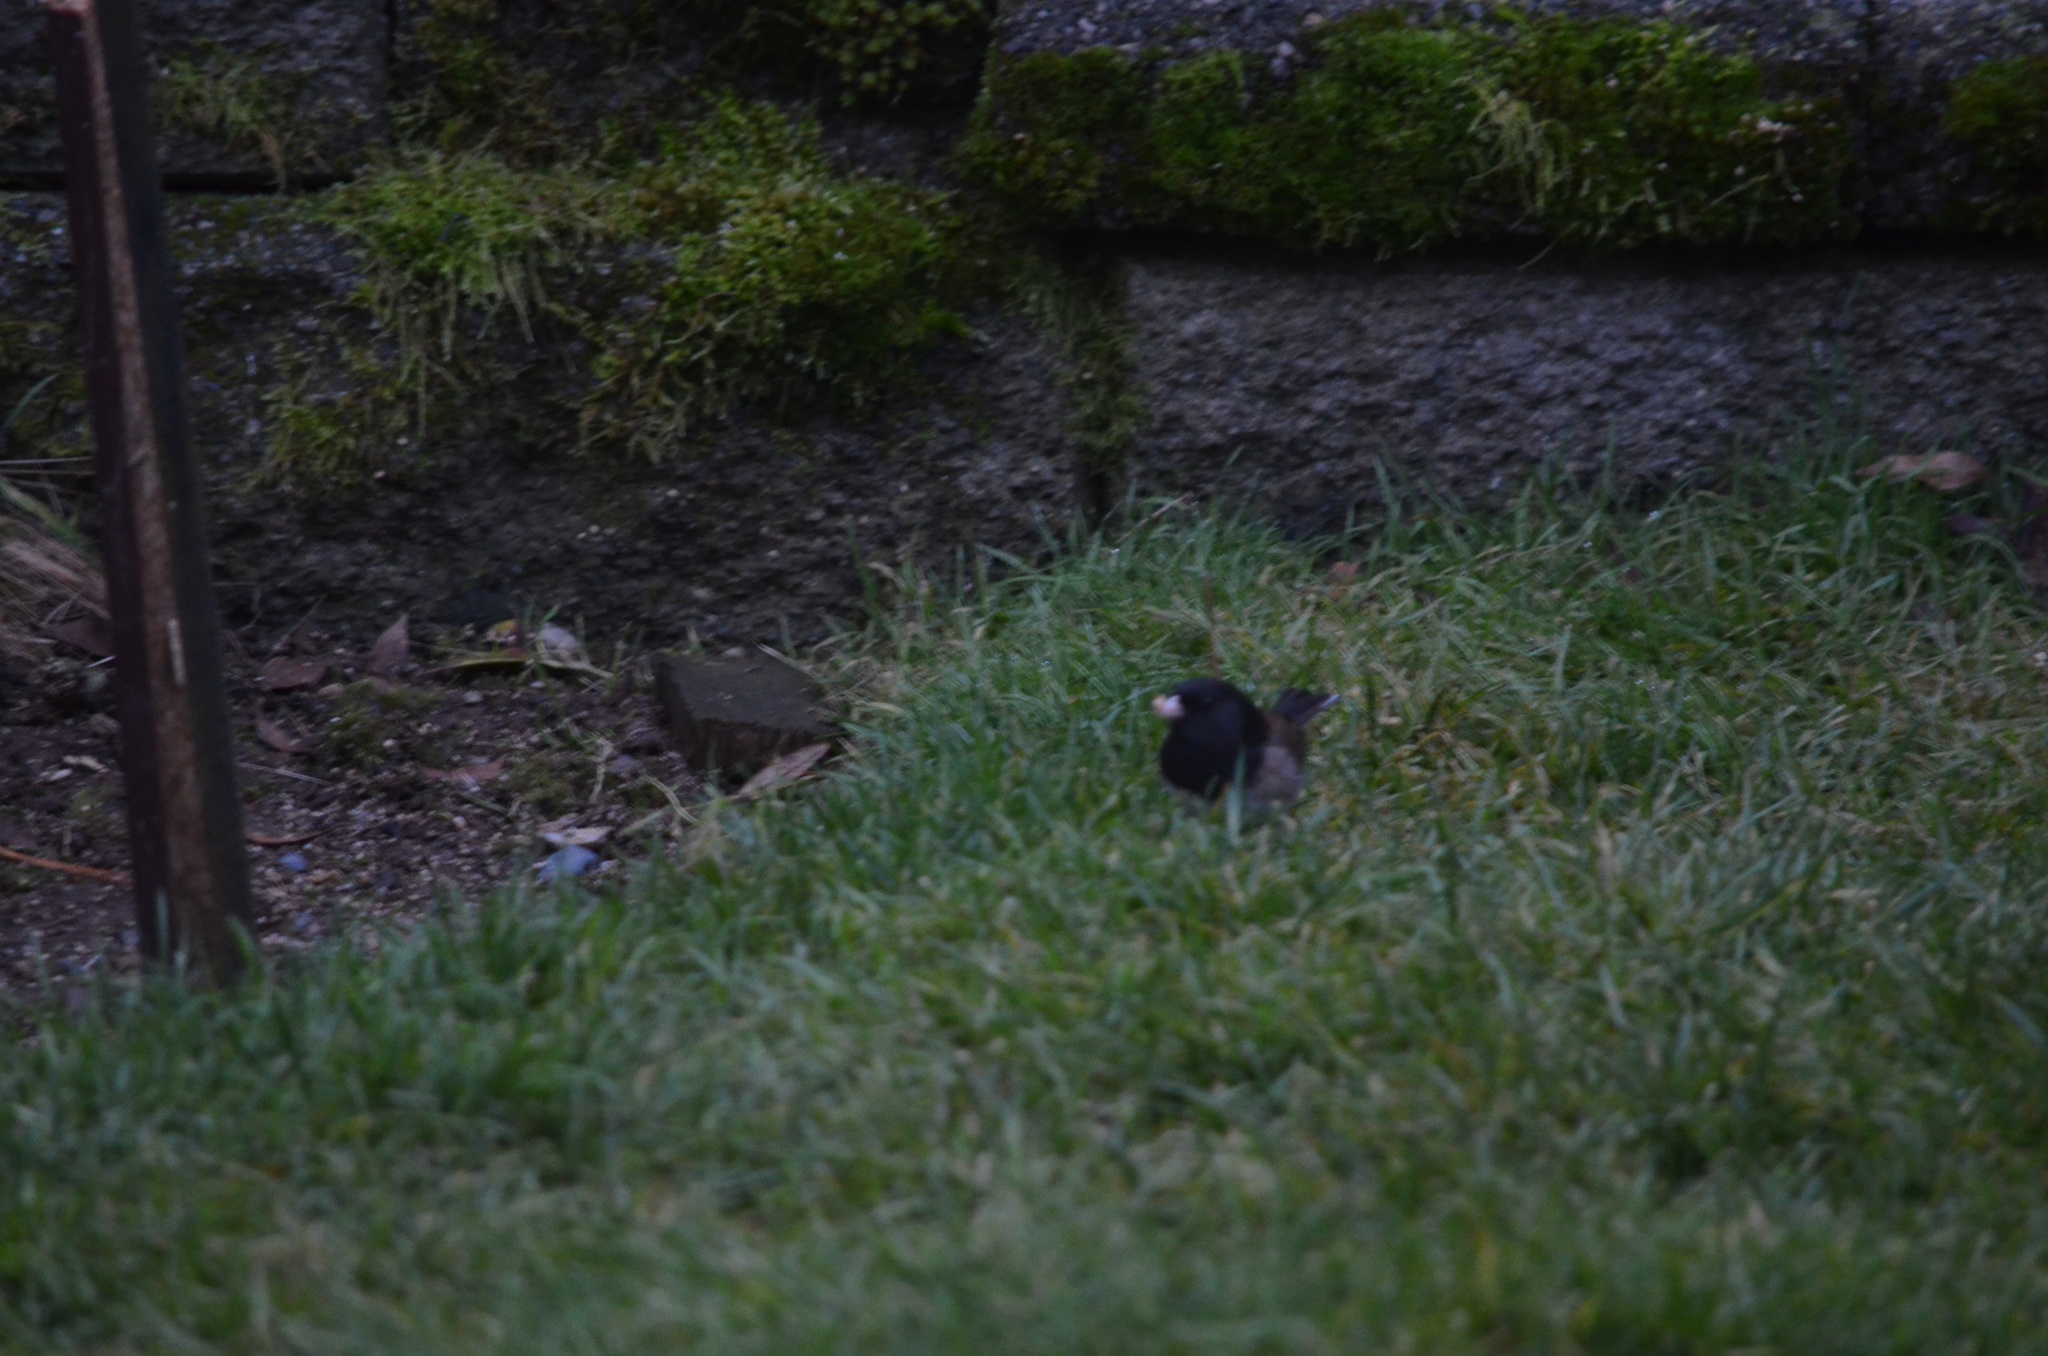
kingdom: Animalia
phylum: Chordata
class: Aves
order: Passeriformes
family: Passerellidae
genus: Junco
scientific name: Junco hyemalis
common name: Dark-eyed junco
